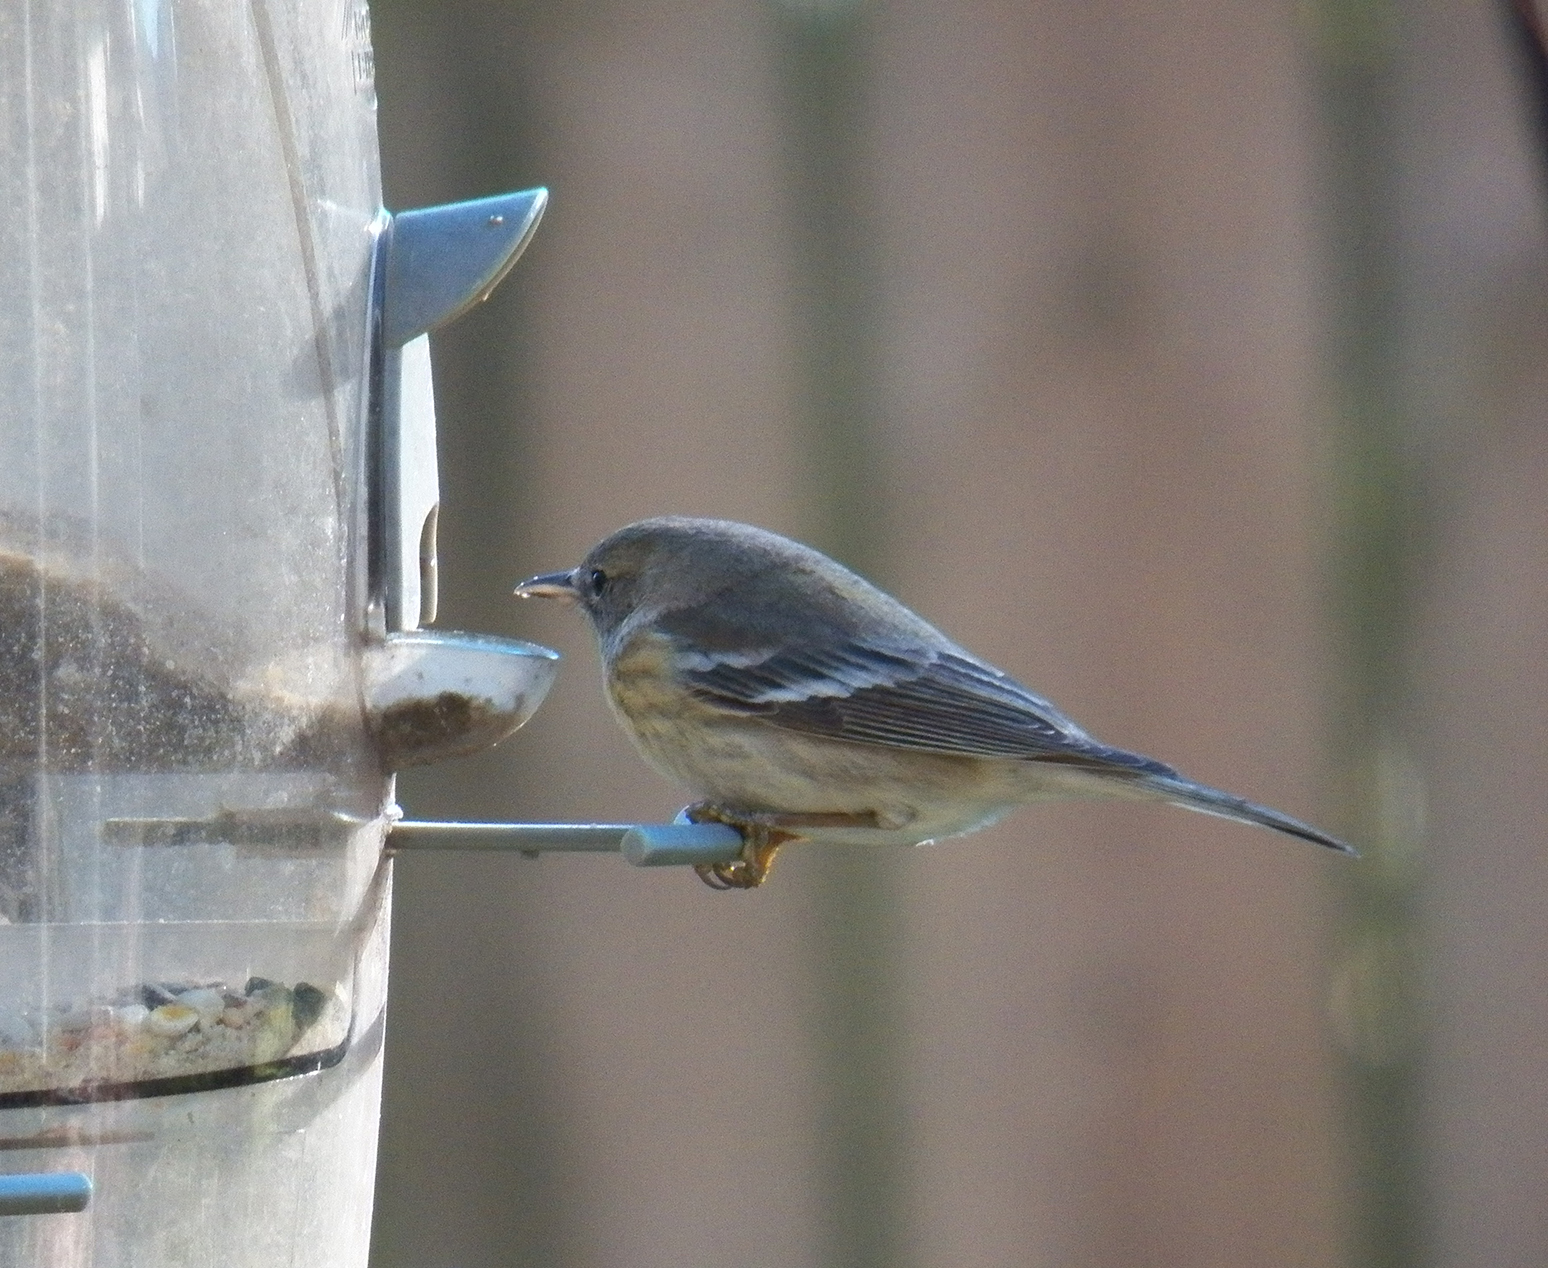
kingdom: Animalia
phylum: Chordata
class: Aves
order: Passeriformes
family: Parulidae
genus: Setophaga
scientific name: Setophaga pinus
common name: Pine warbler
